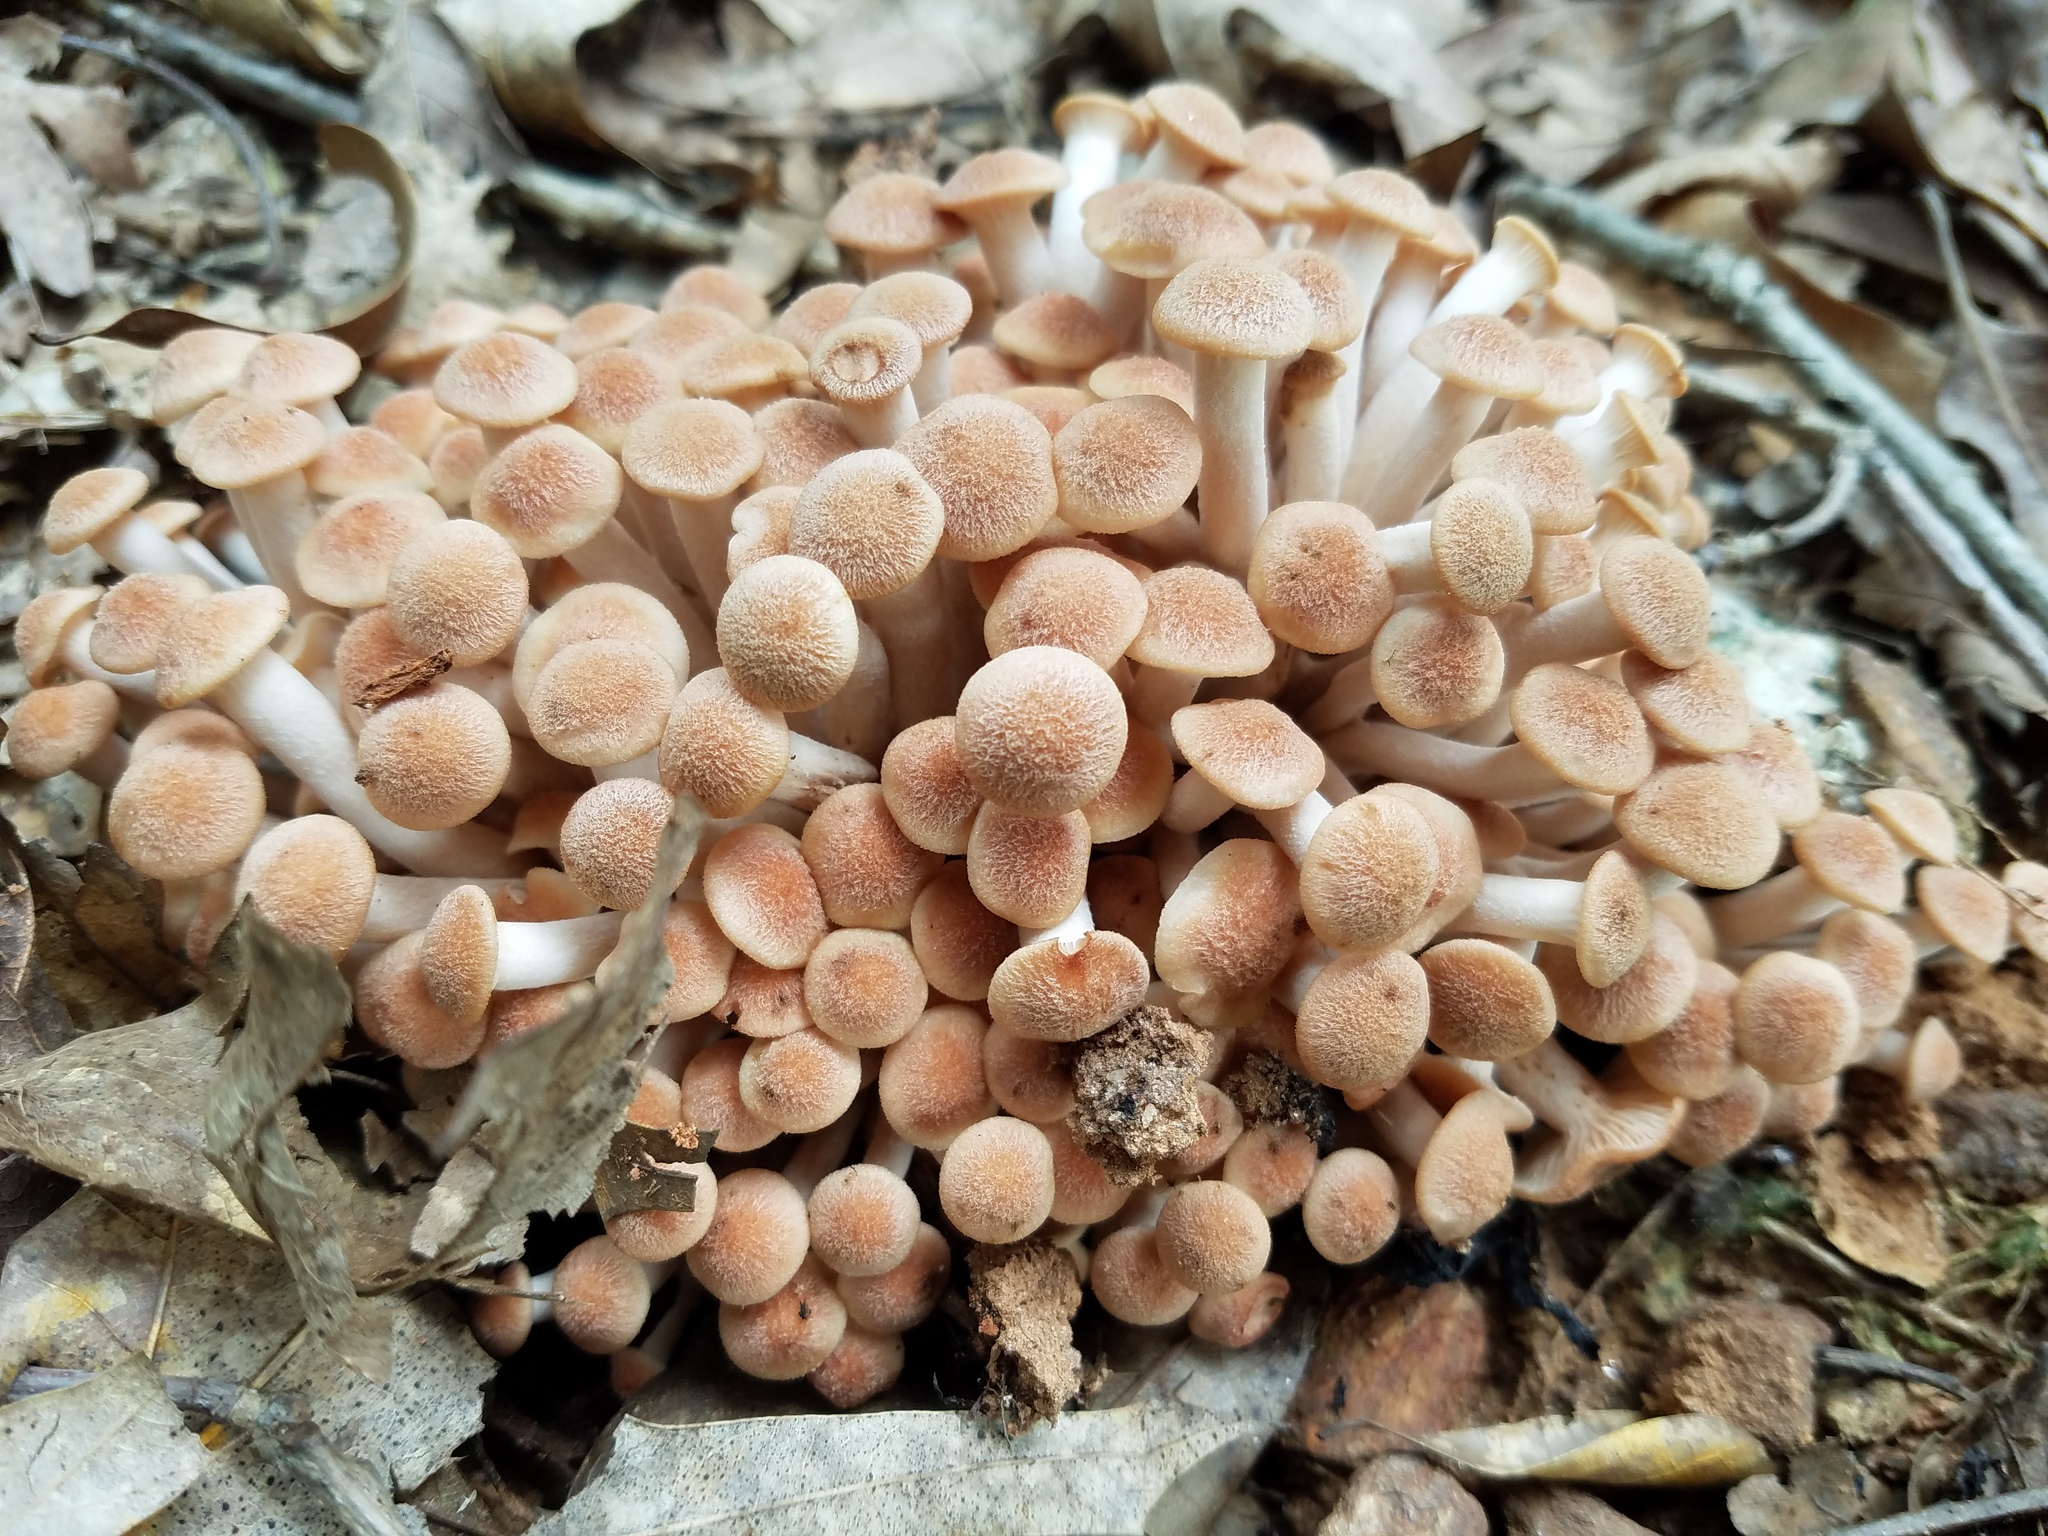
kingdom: Fungi
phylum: Basidiomycota
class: Agaricomycetes
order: Agaricales
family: Physalacriaceae
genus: Desarmillaria
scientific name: Desarmillaria caespitosa
